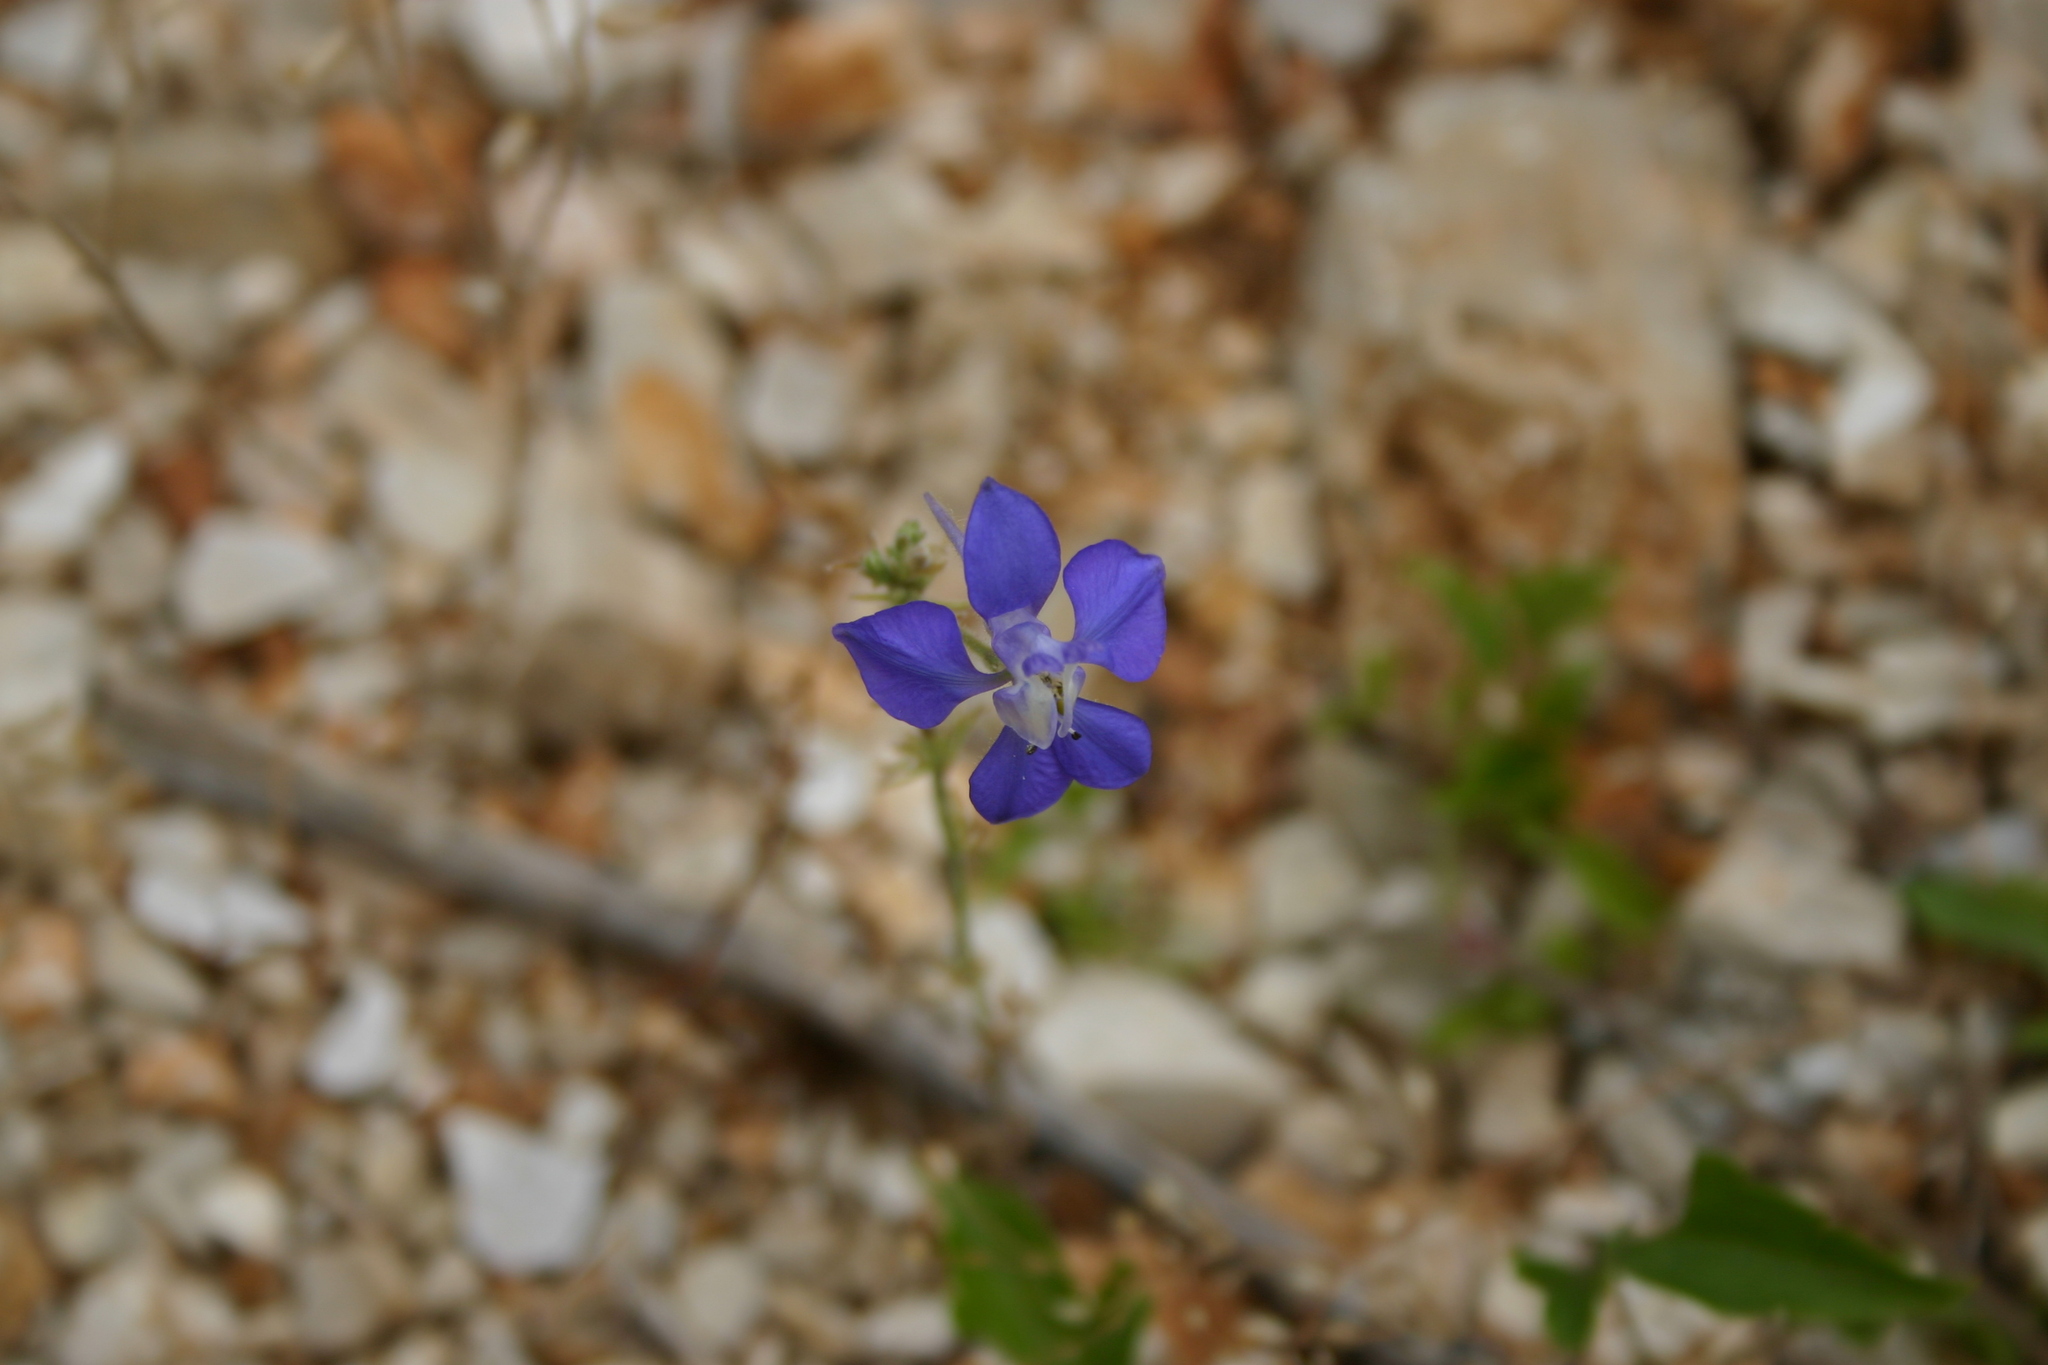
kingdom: Plantae
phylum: Tracheophyta
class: Magnoliopsida
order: Ranunculales
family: Ranunculaceae
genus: Delphinium
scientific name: Delphinium consolida
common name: Branching larkspur
